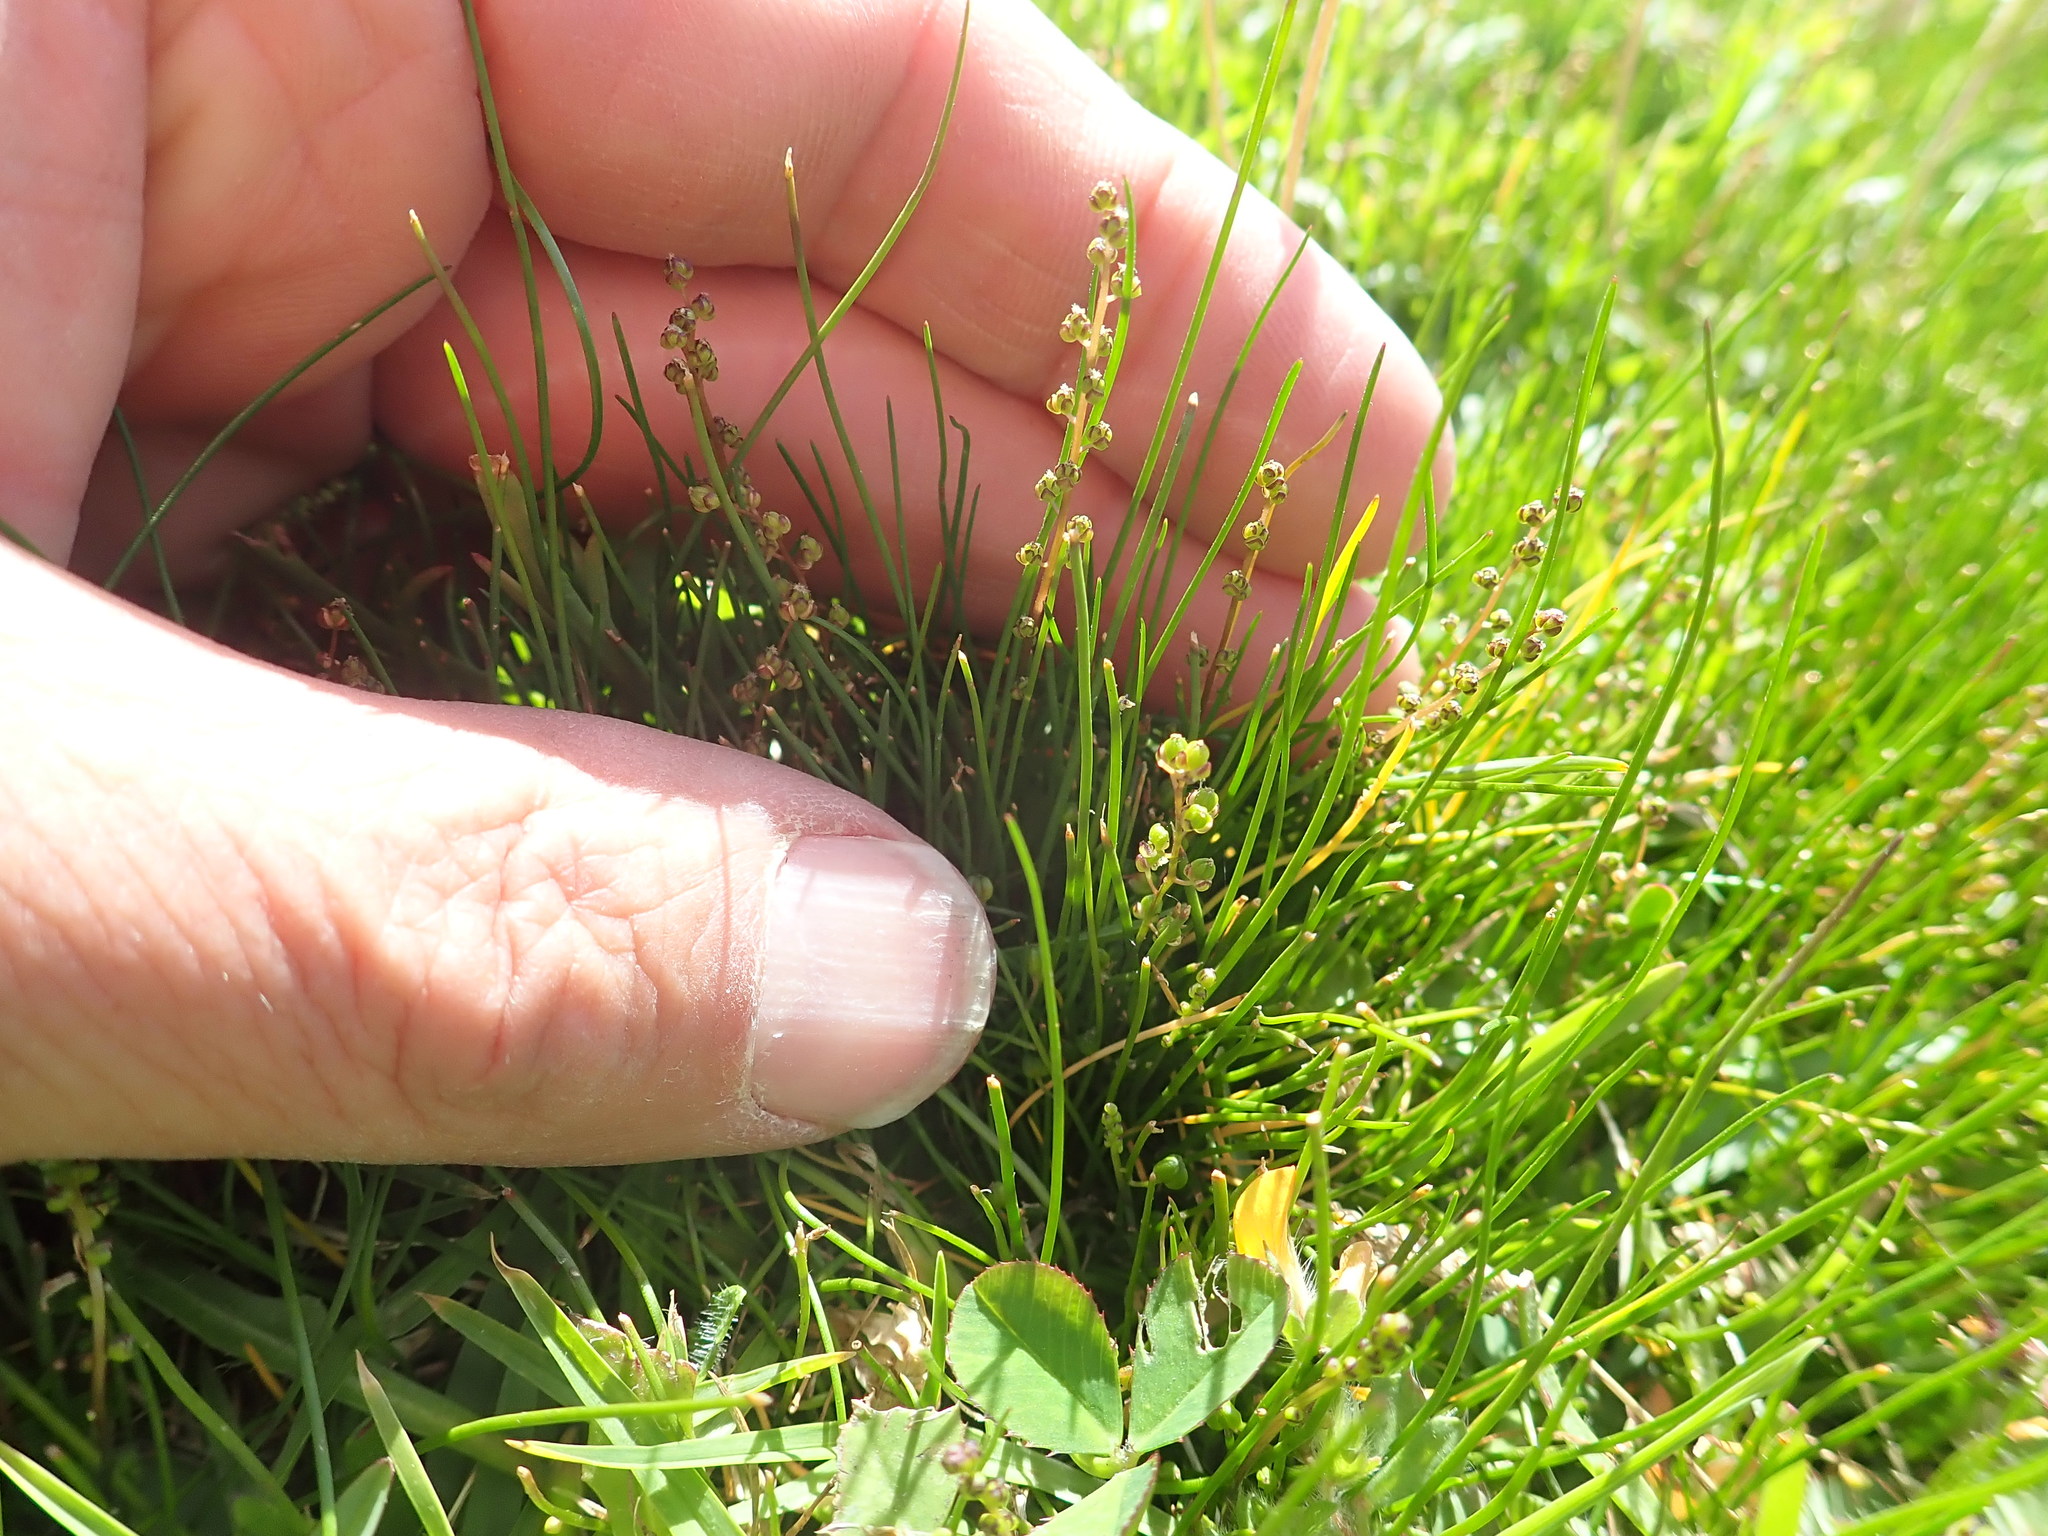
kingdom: Plantae
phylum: Tracheophyta
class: Liliopsida
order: Alismatales
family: Juncaginaceae
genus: Triglochin
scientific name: Triglochin striata
